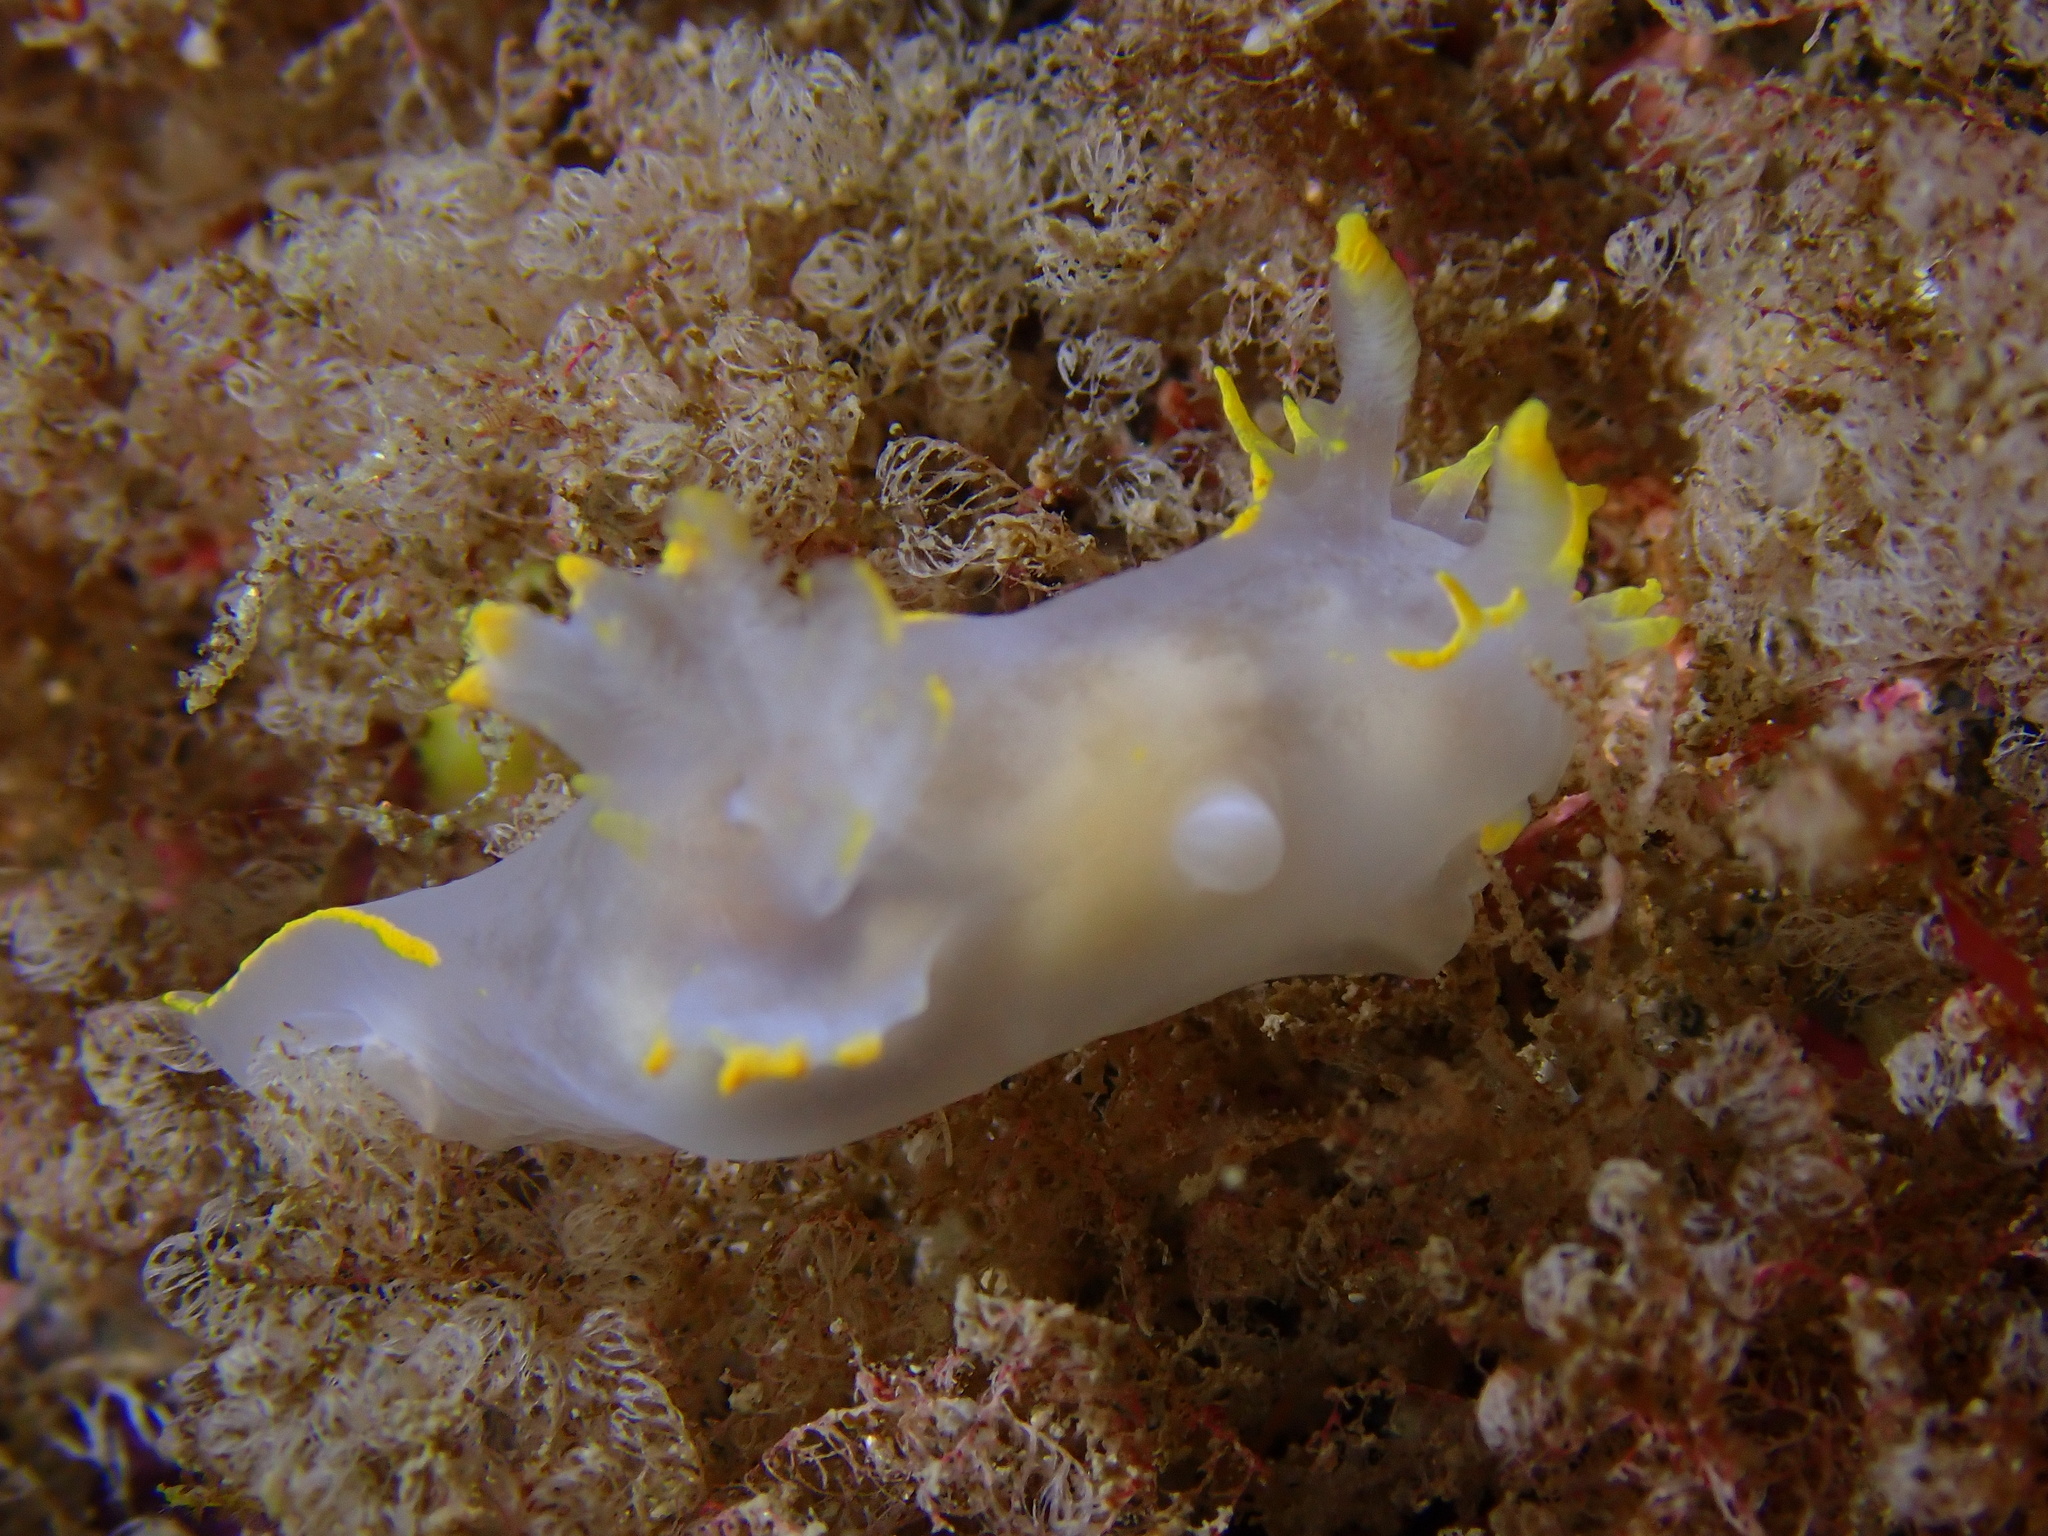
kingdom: Animalia
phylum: Mollusca
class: Gastropoda
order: Nudibranchia
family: Polyceridae
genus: Polycera
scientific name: Polycera faeroensis
